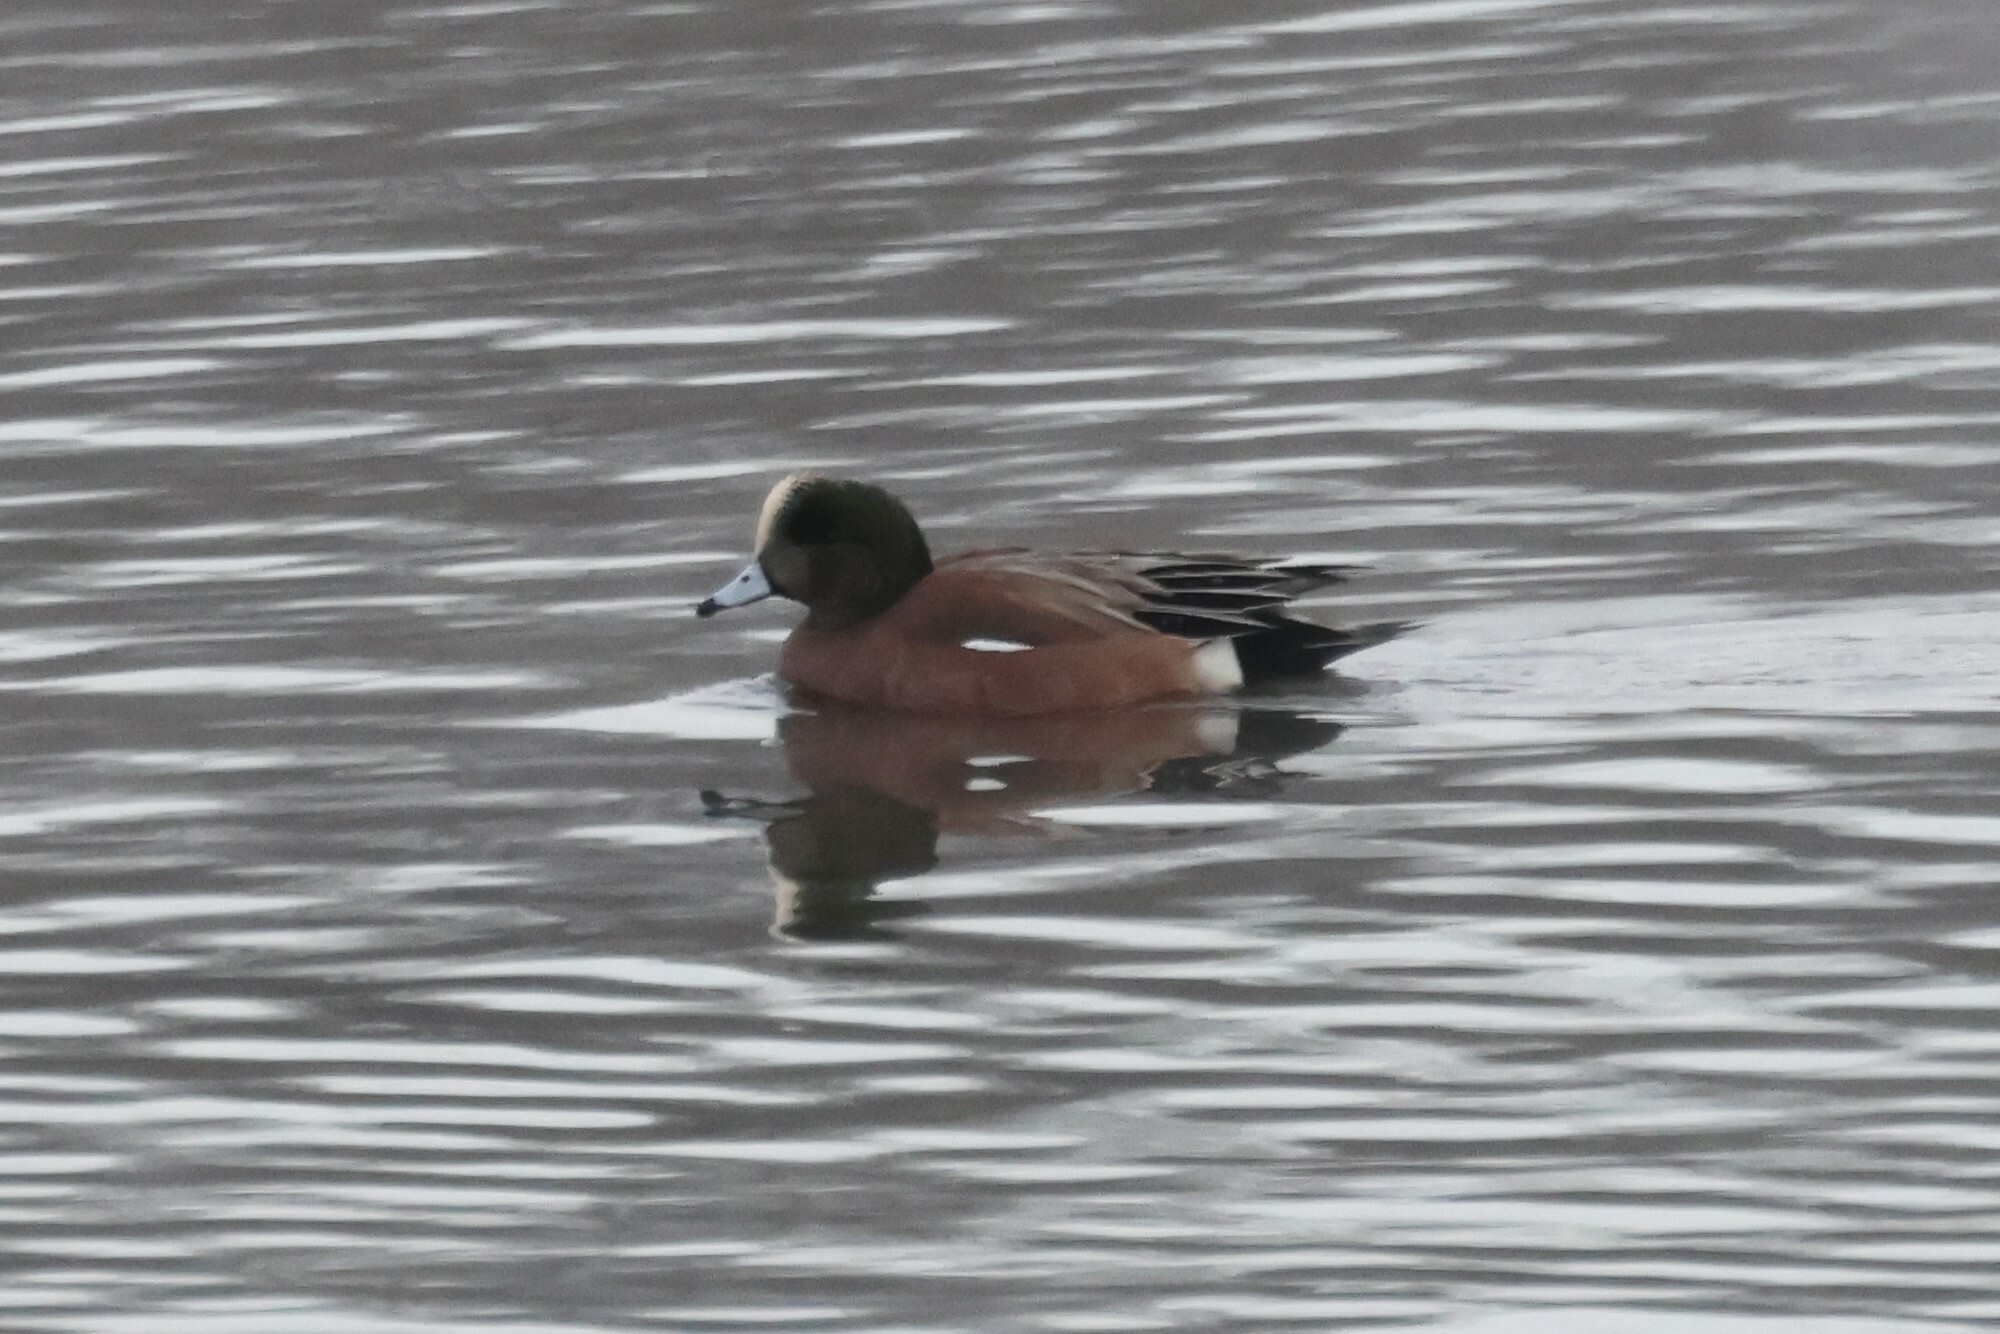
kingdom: Animalia
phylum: Chordata
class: Aves
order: Anseriformes
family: Anatidae
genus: Mareca
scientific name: Mareca americana
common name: American wigeon
